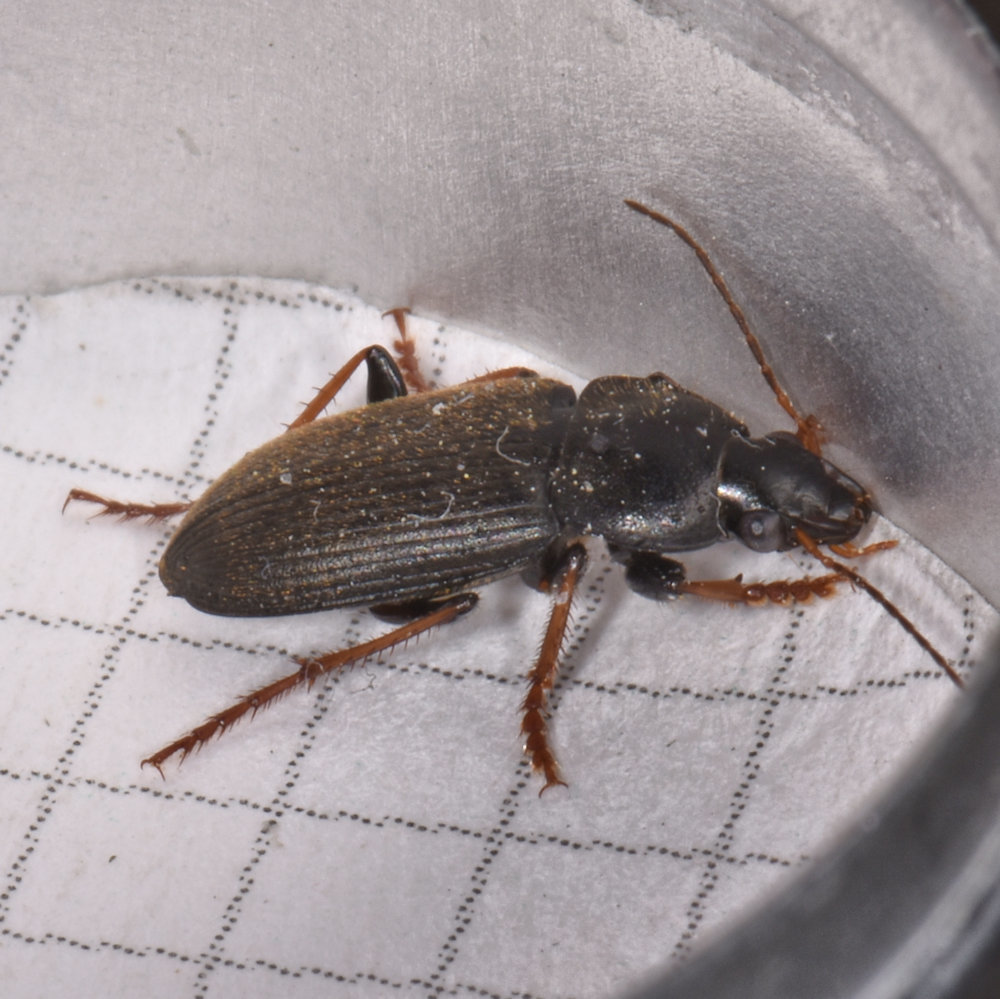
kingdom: Animalia
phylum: Arthropoda
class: Insecta
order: Coleoptera
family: Carabidae
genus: Amphasia
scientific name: Amphasia sericea
